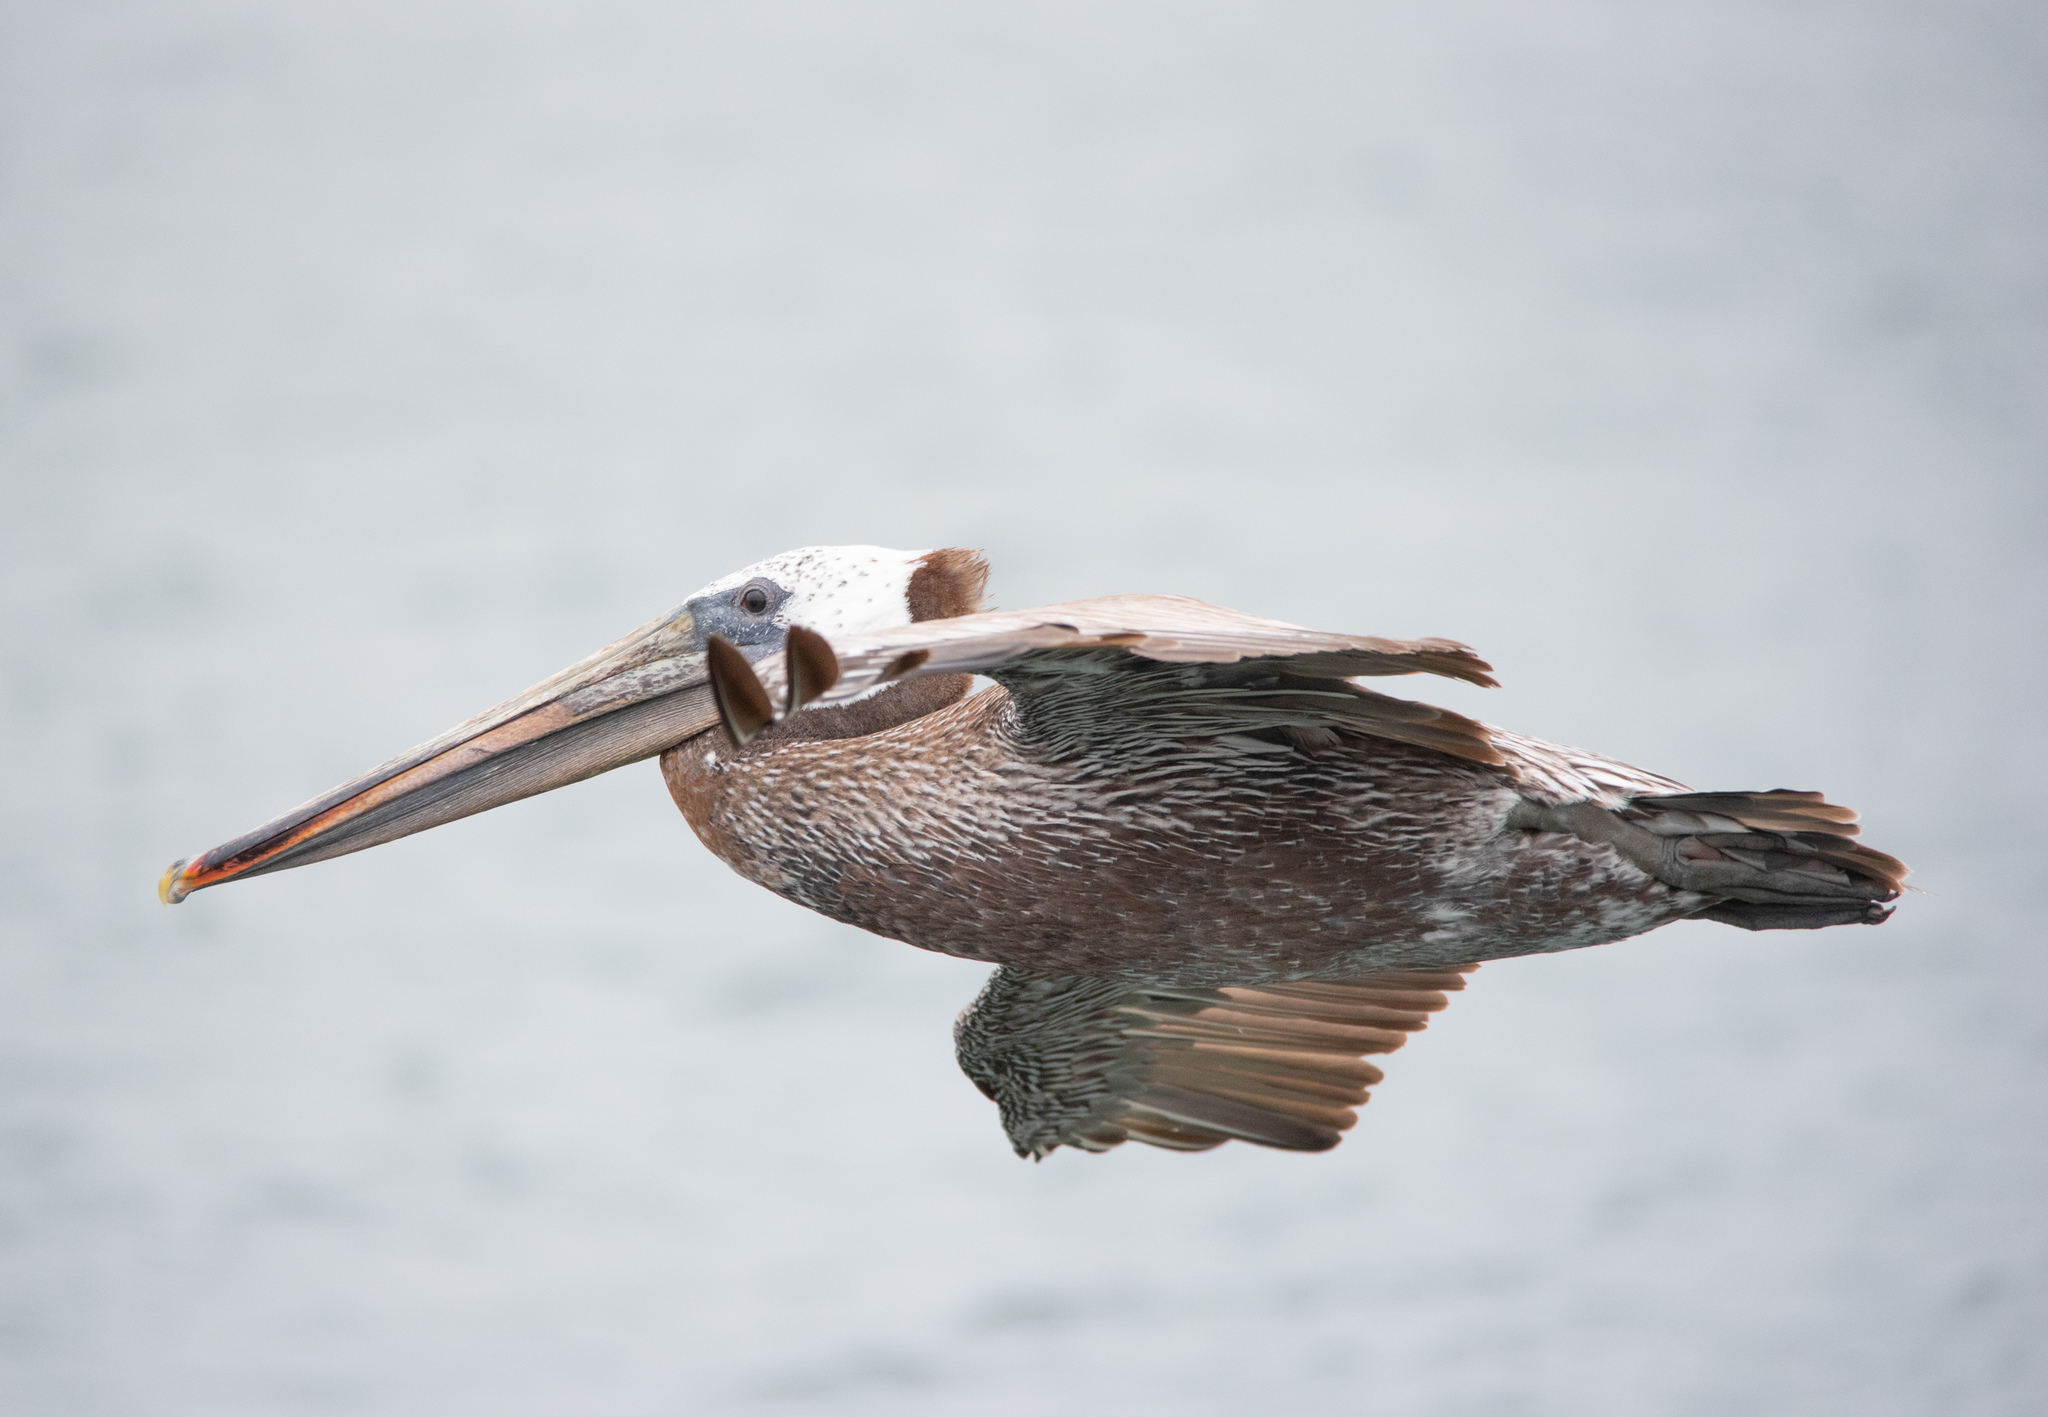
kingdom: Animalia
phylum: Chordata
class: Aves
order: Pelecaniformes
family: Pelecanidae
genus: Pelecanus
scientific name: Pelecanus occidentalis
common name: Brown pelican
